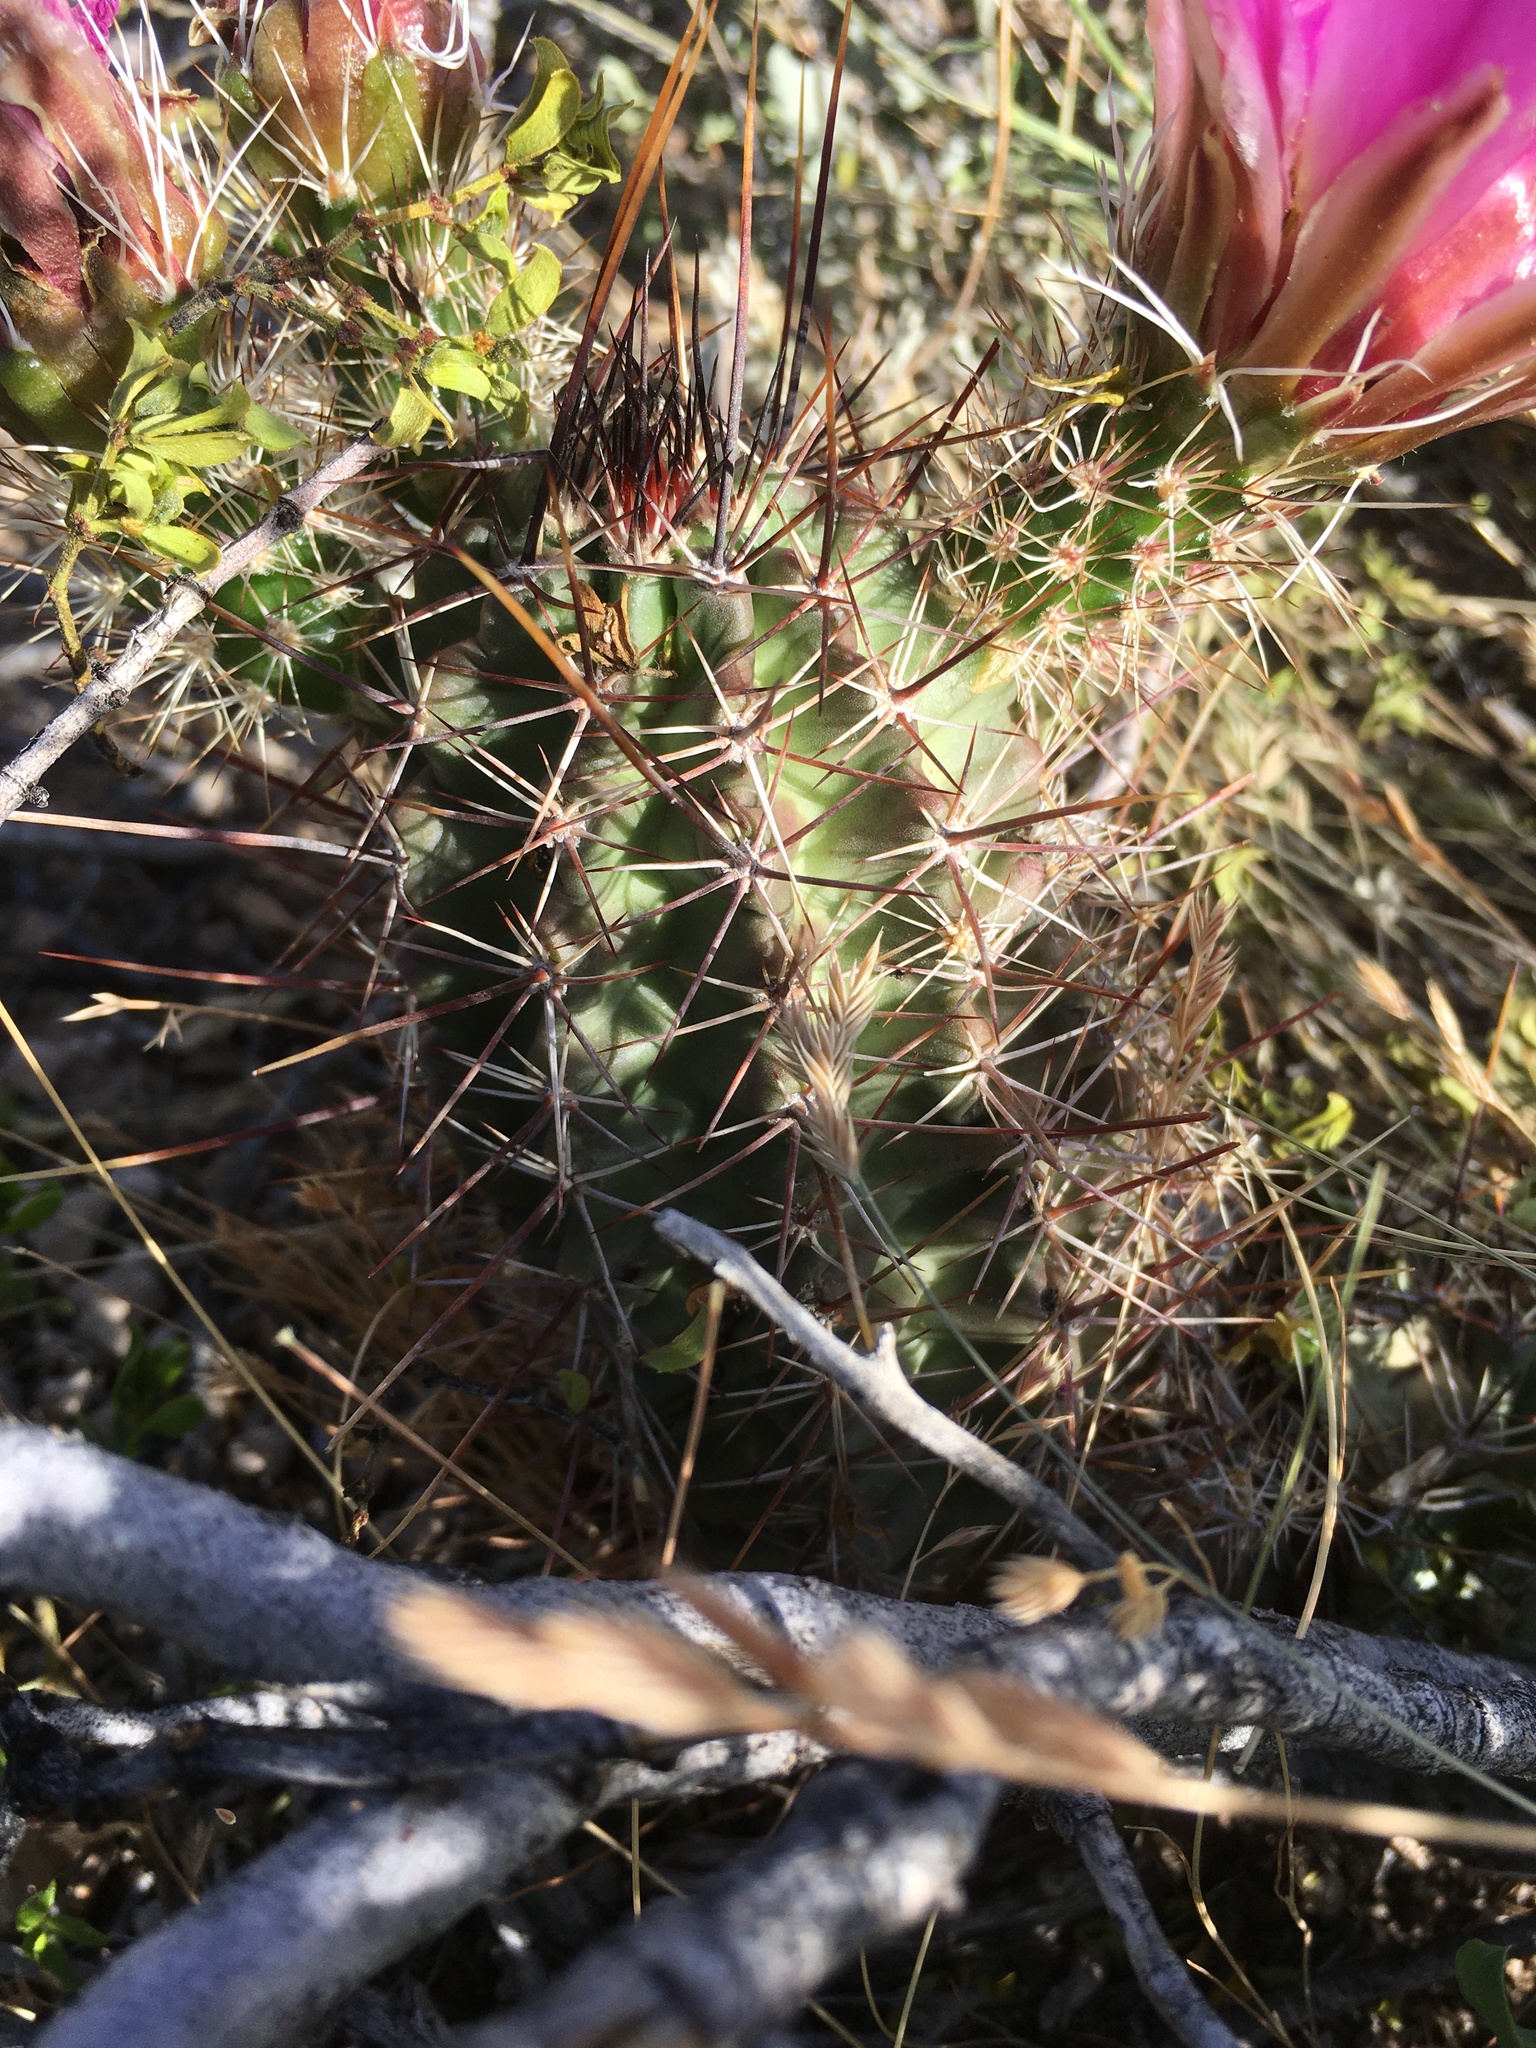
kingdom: Plantae
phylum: Tracheophyta
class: Magnoliopsida
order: Caryophyllales
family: Cactaceae
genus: Echinocereus
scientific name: Echinocereus fendleri
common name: Fendler's hedgehog cactus
